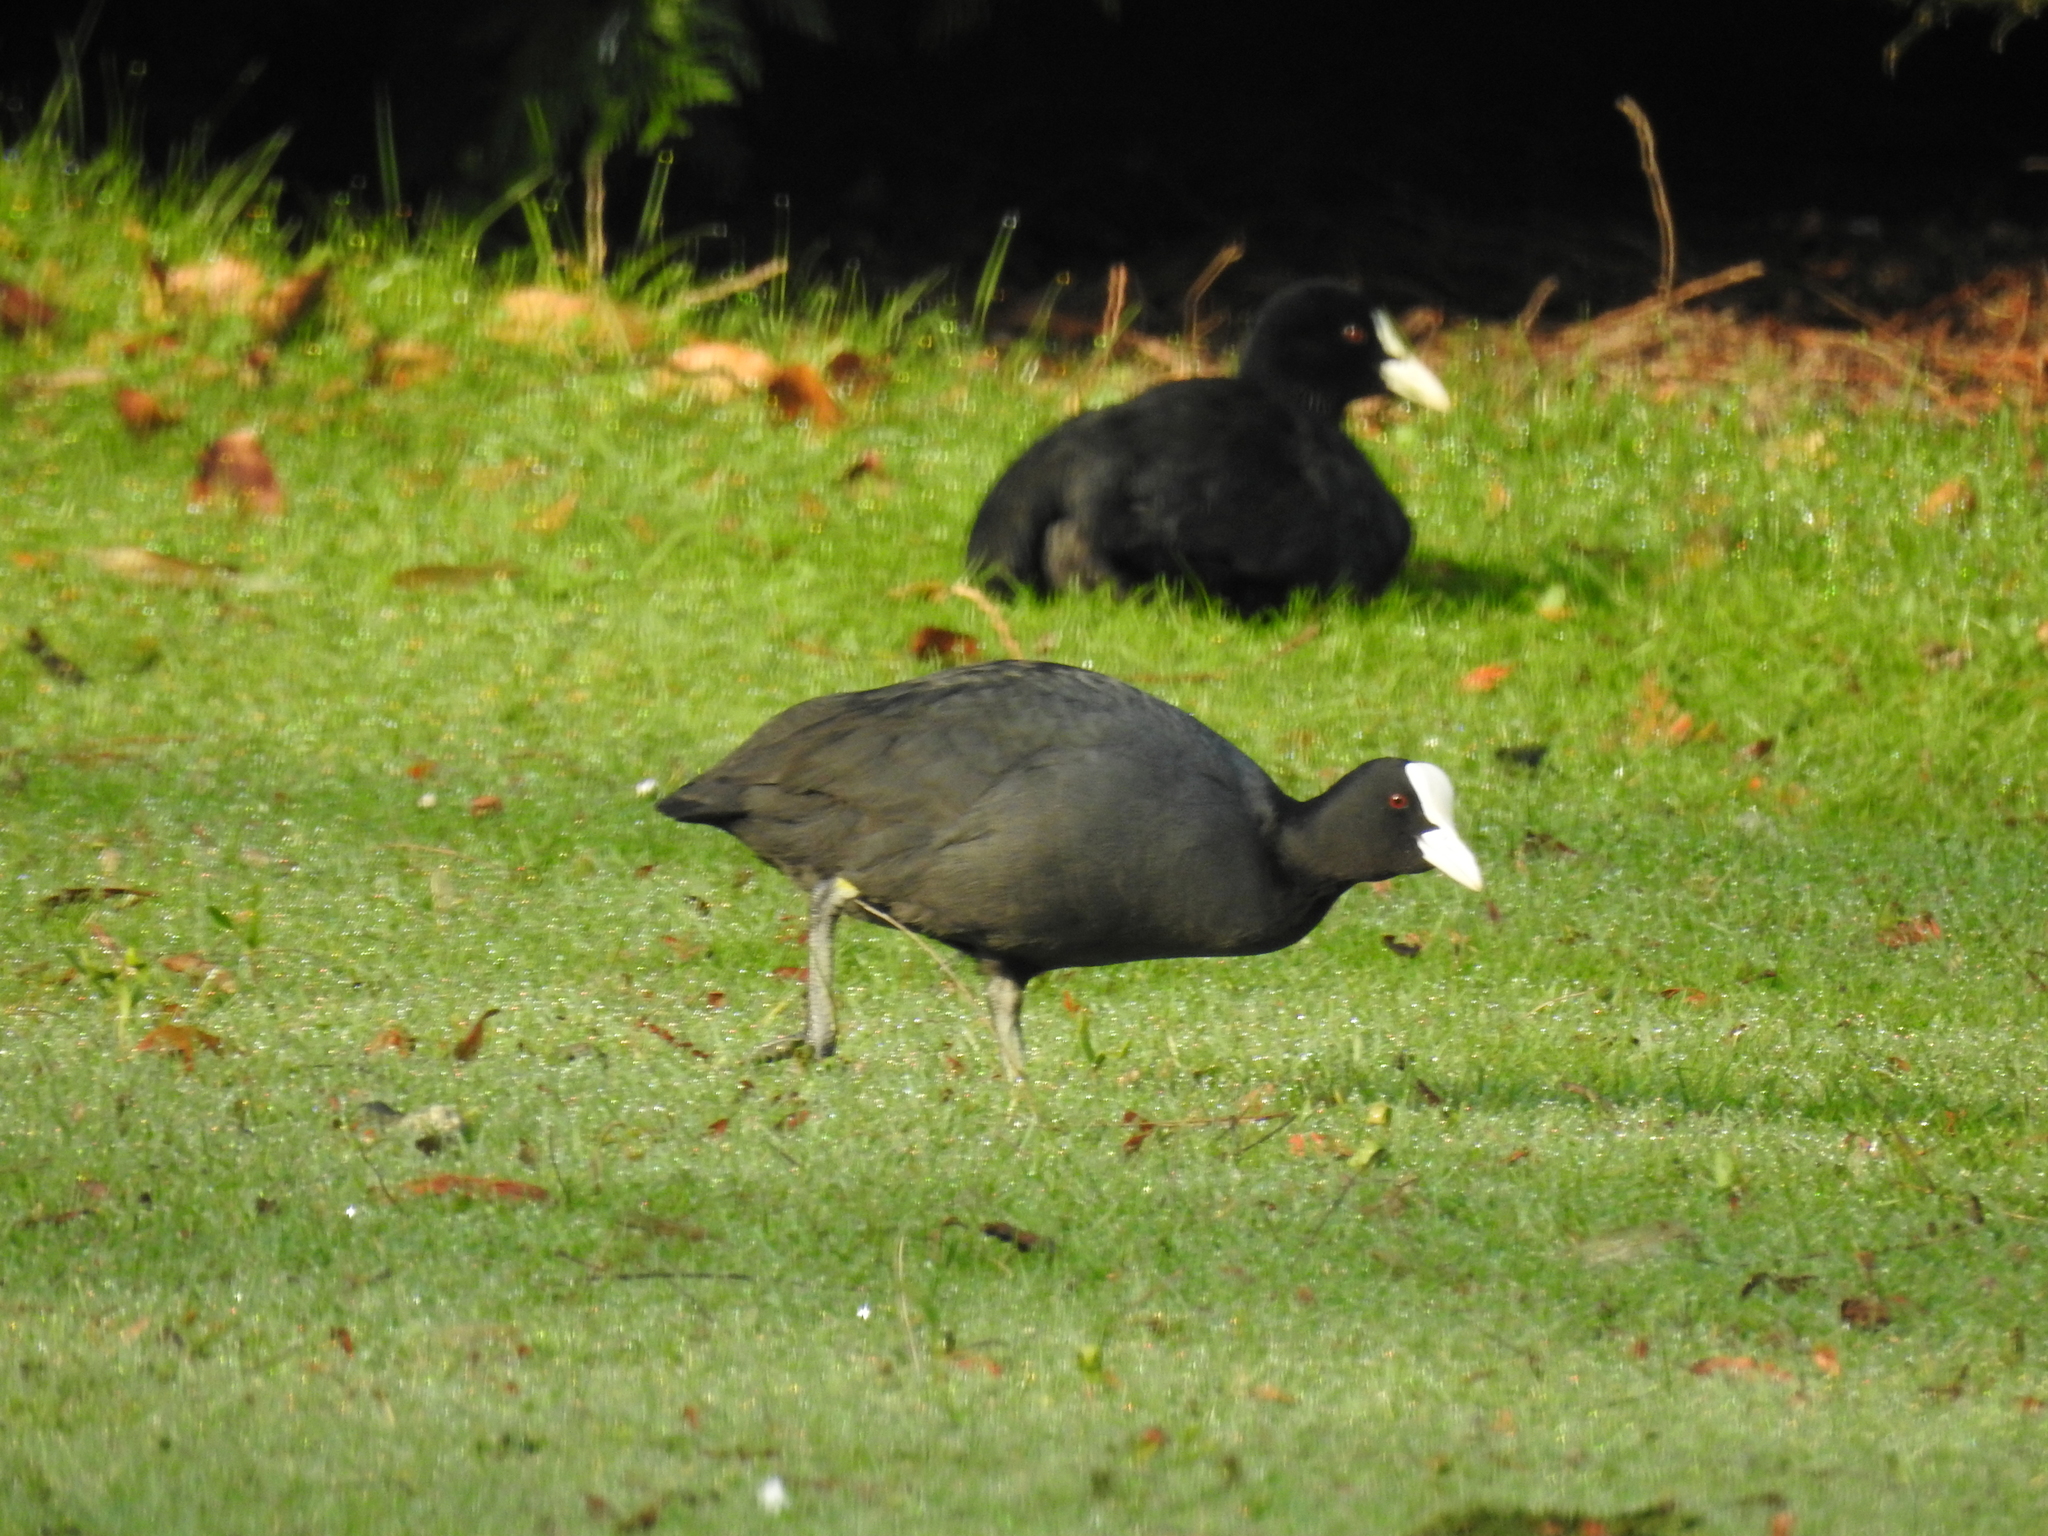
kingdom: Animalia
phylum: Chordata
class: Aves
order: Gruiformes
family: Rallidae
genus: Fulica
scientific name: Fulica atra
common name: Eurasian coot
